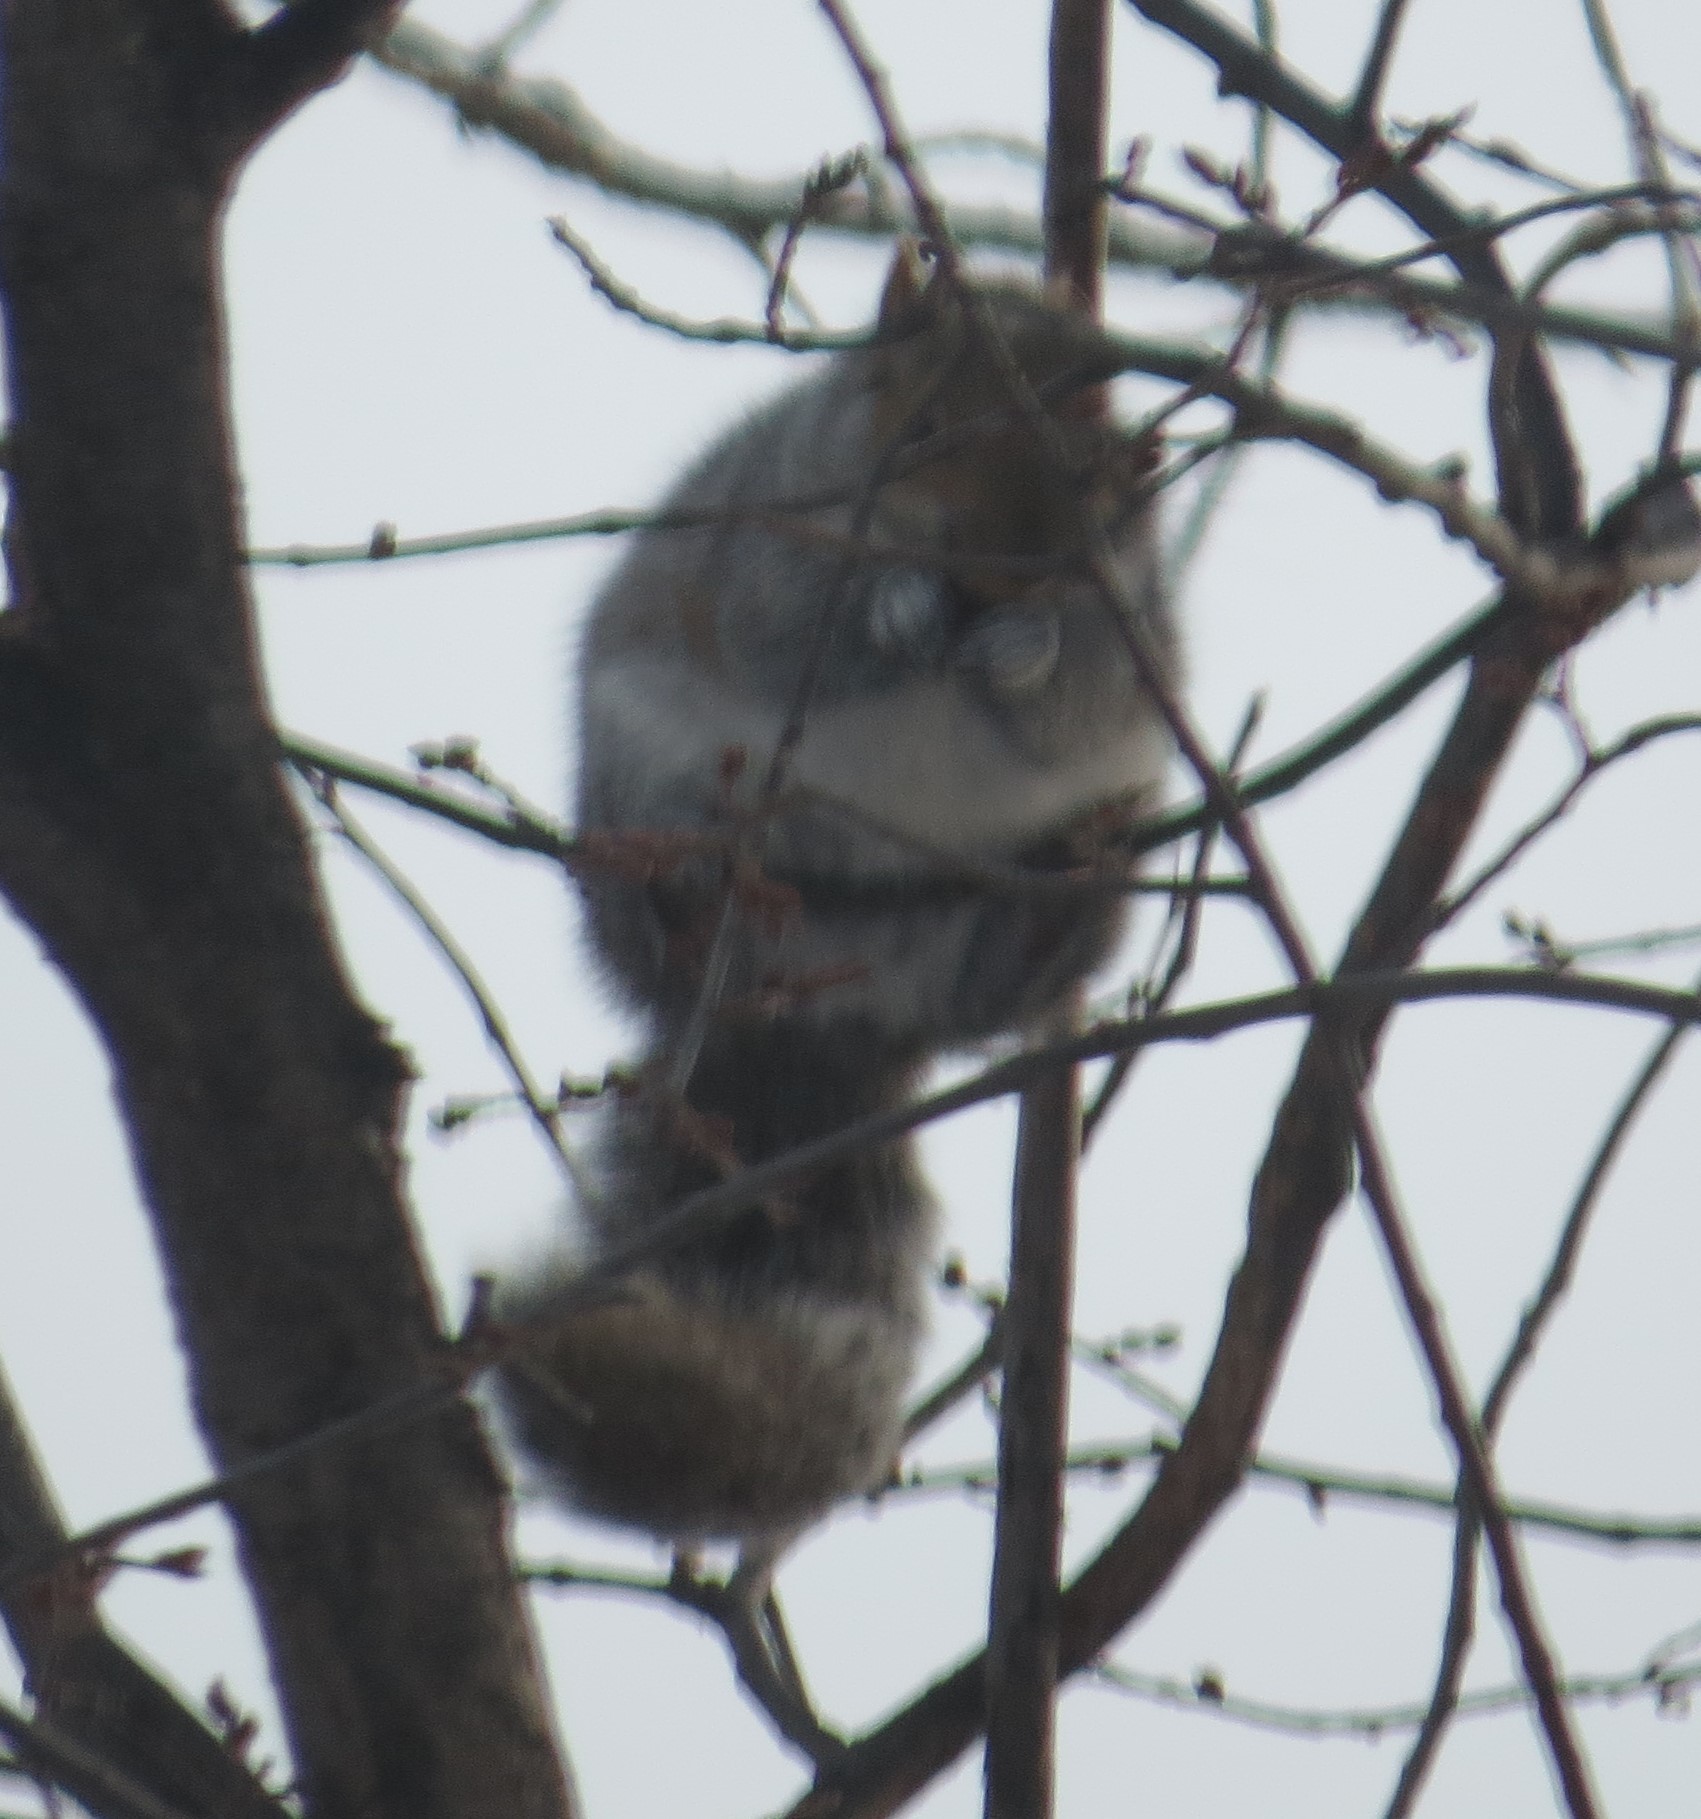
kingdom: Animalia
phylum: Chordata
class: Mammalia
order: Rodentia
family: Sciuridae
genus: Sciurus
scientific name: Sciurus carolinensis
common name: Eastern gray squirrel
